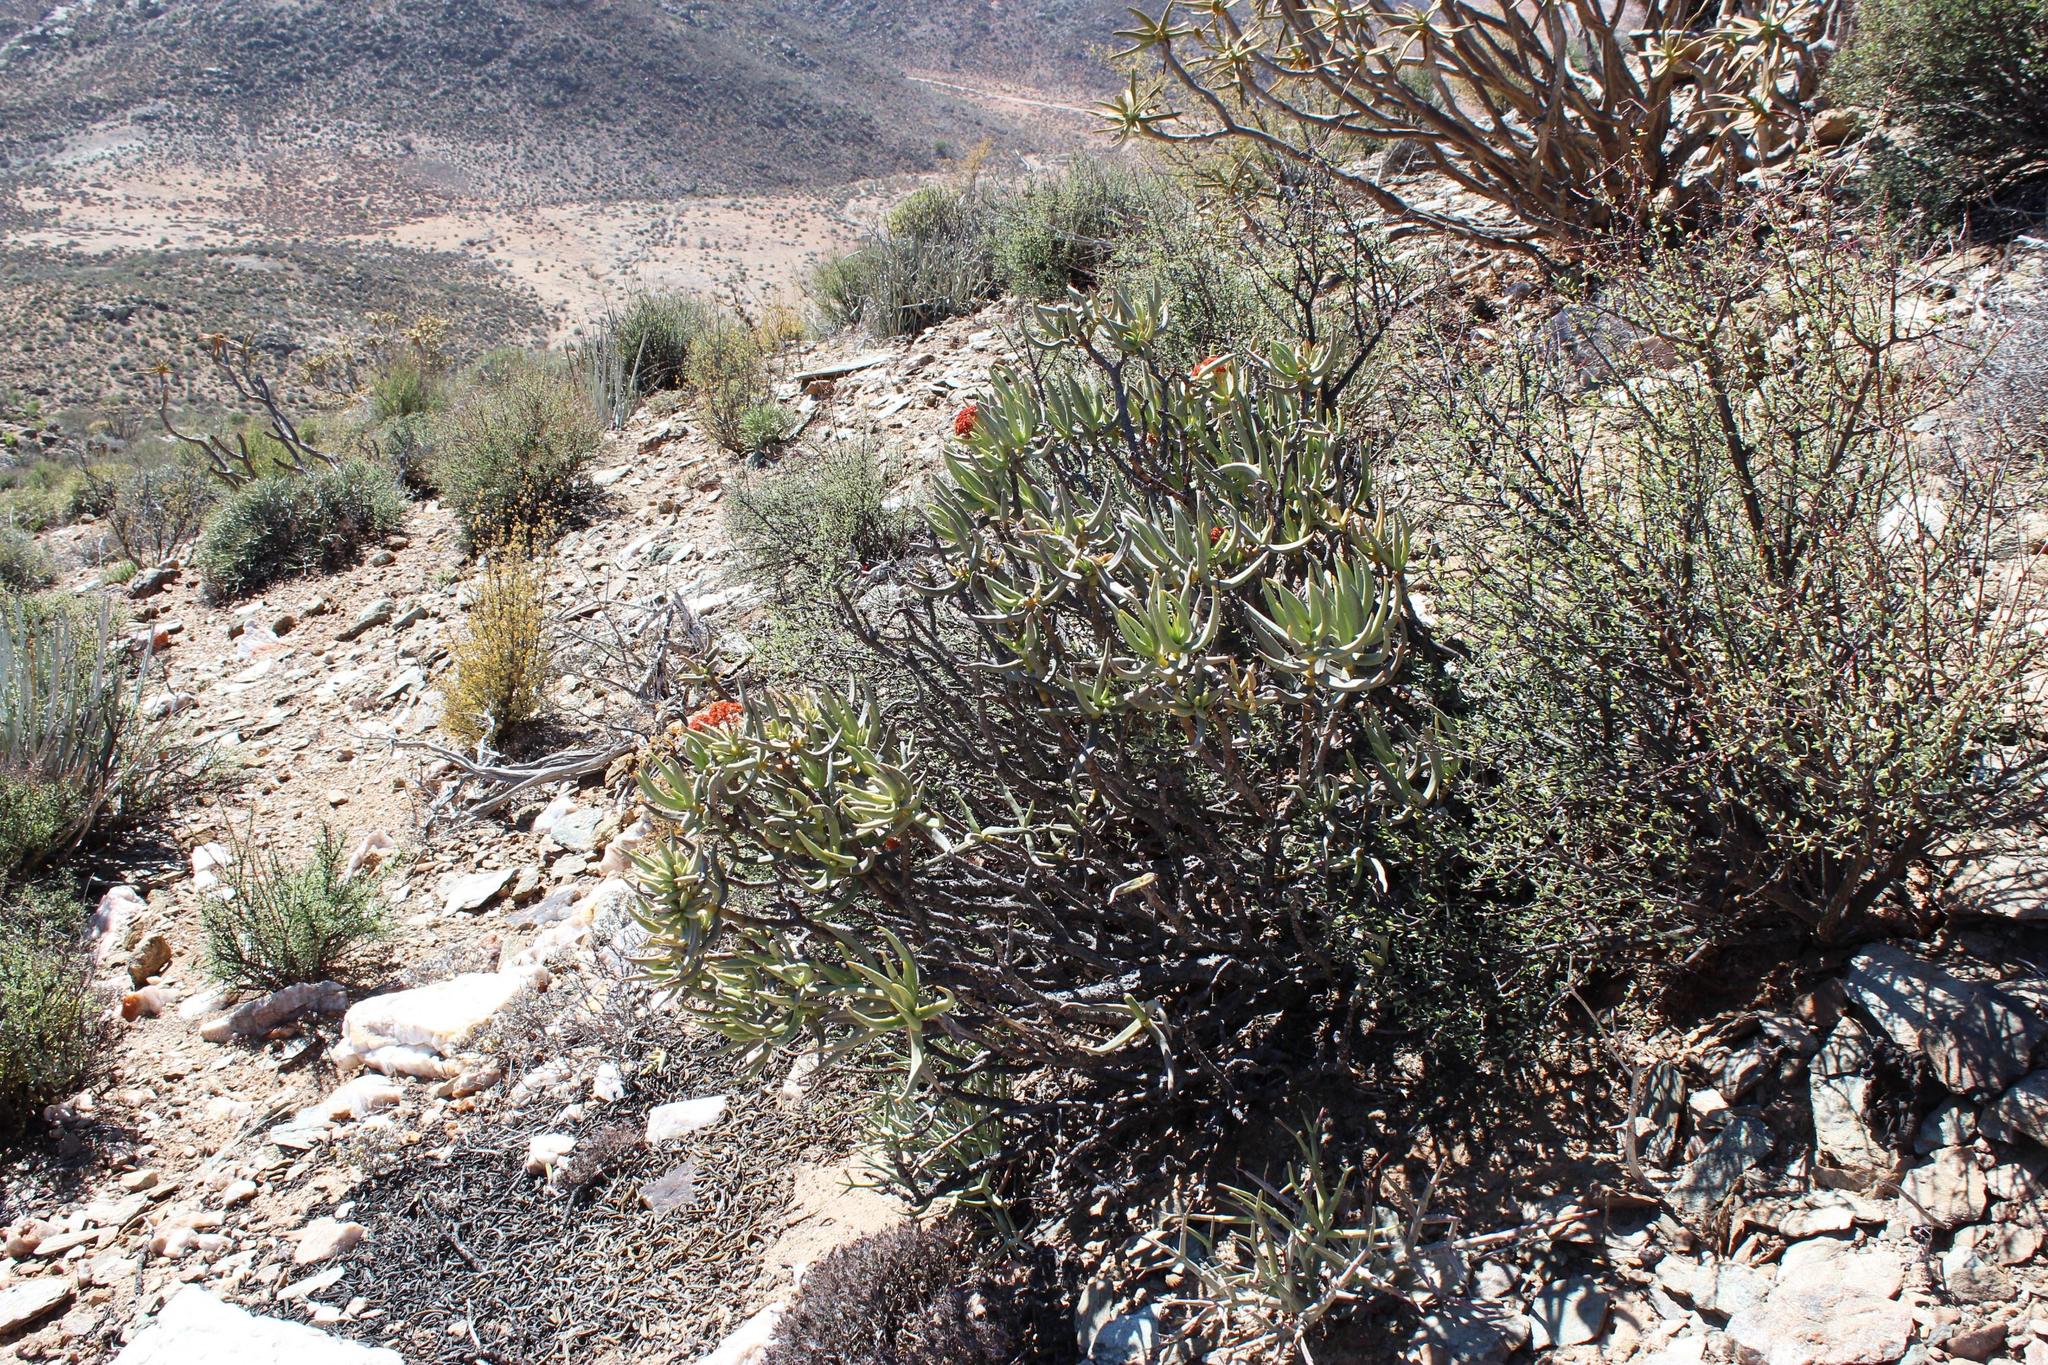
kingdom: Plantae
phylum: Tracheophyta
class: Magnoliopsida
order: Saxifragales
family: Crassulaceae
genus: Crassula
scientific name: Crassula macowaniana
